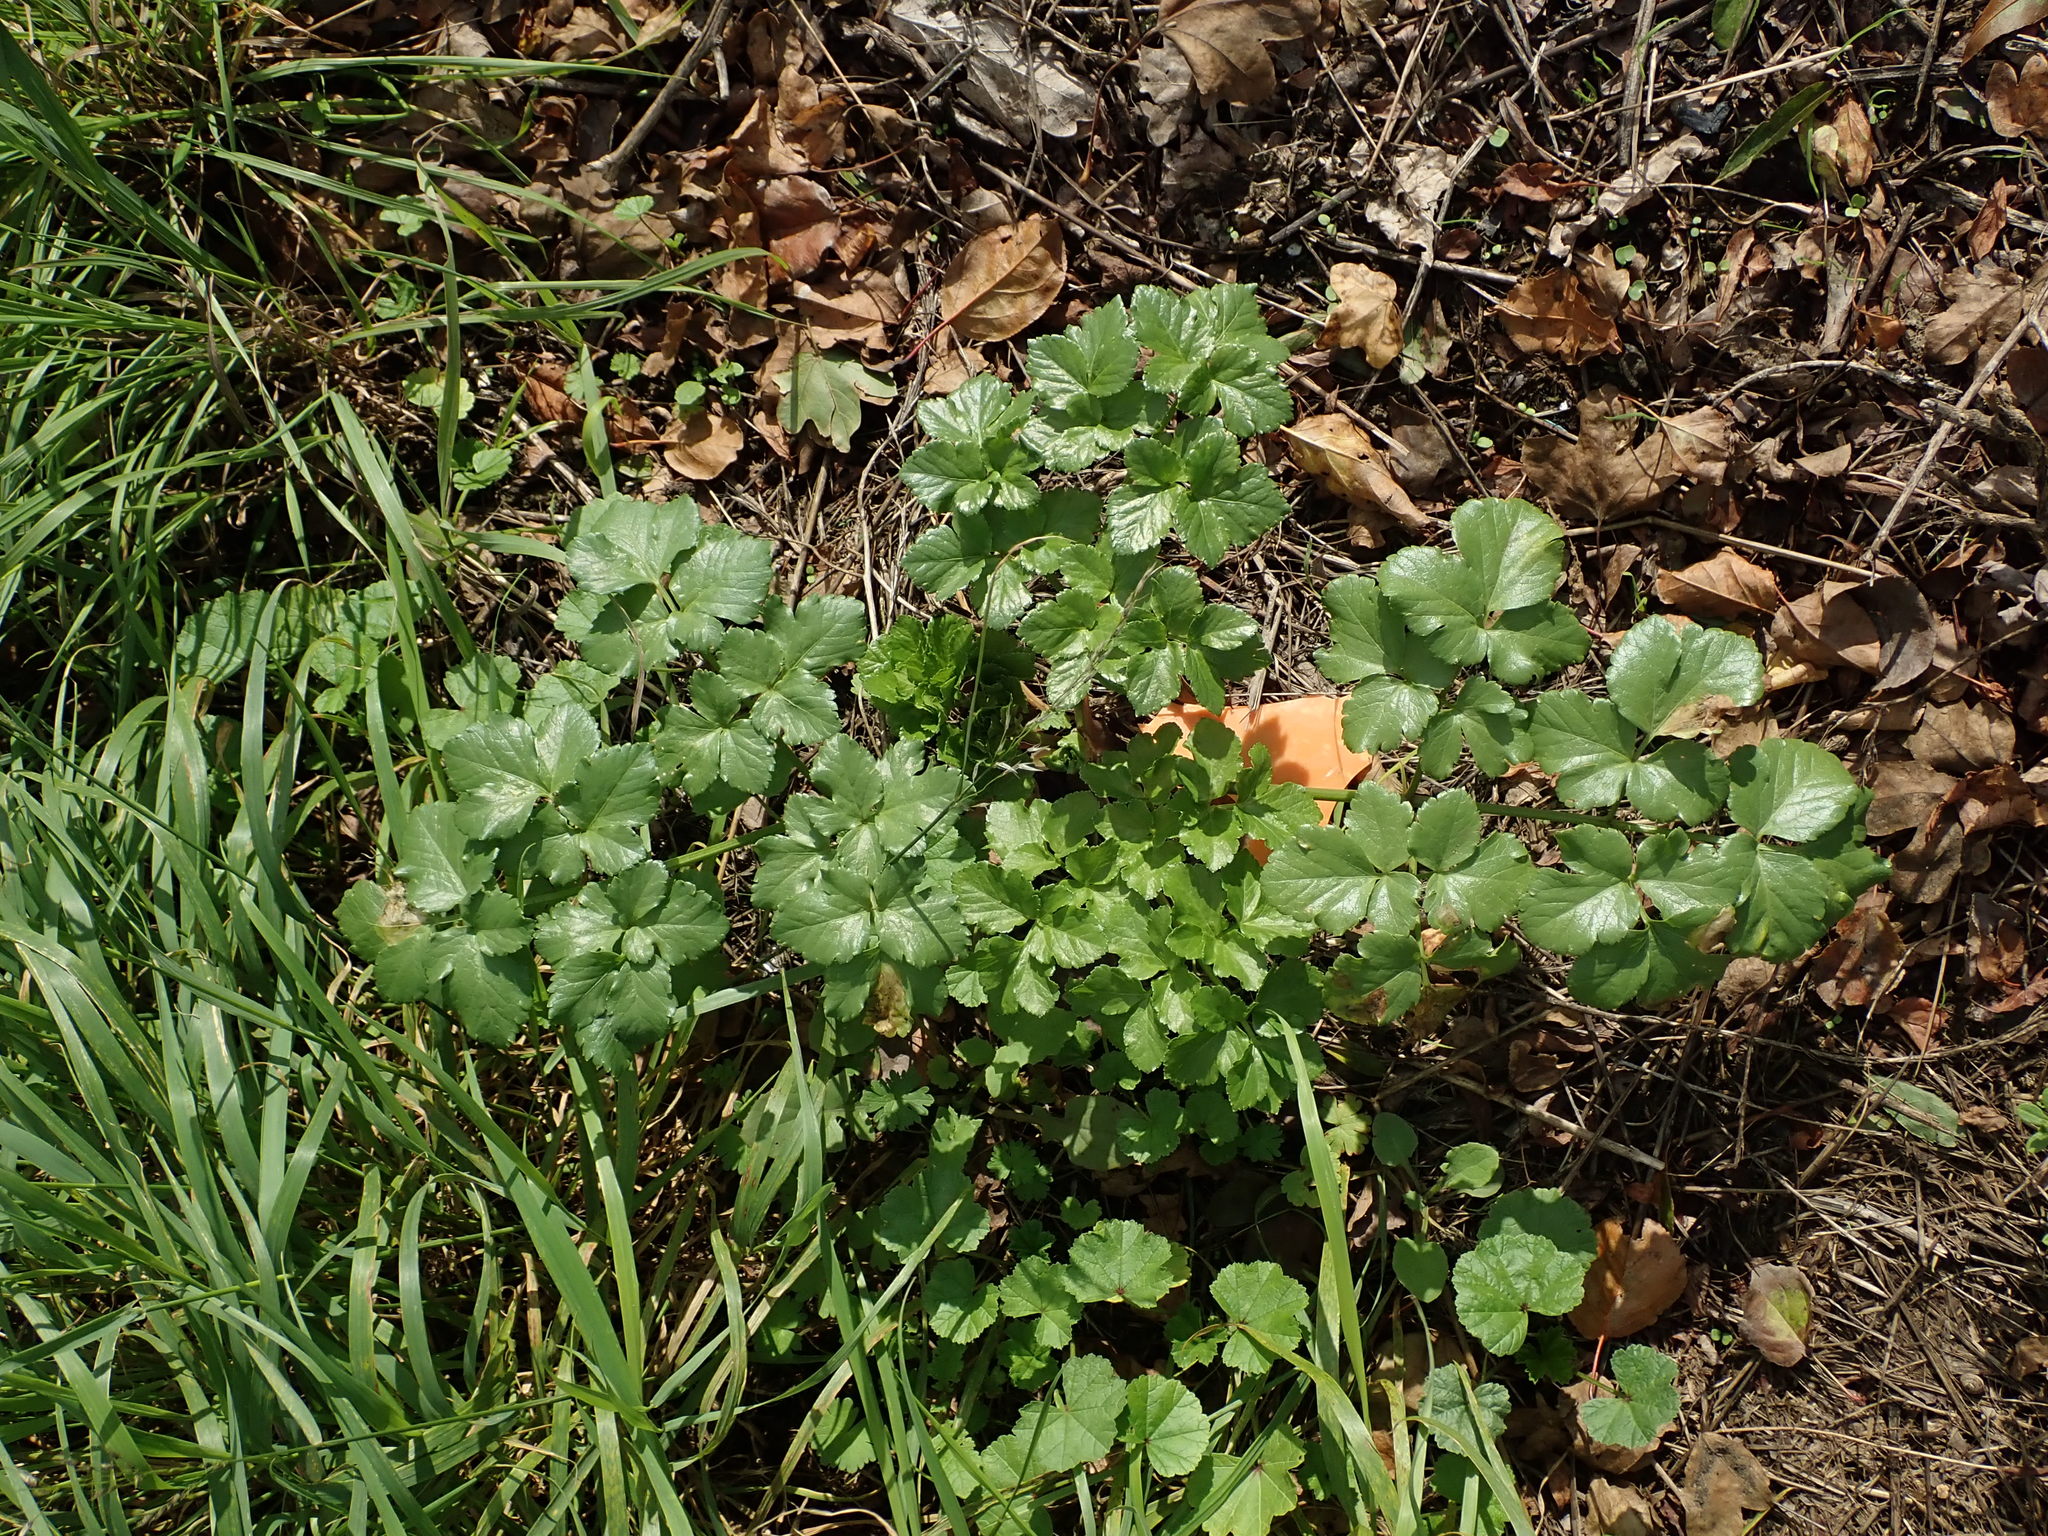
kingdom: Plantae
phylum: Tracheophyta
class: Magnoliopsida
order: Apiales
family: Apiaceae
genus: Smyrnium
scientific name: Smyrnium olusatrum
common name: Alexanders
